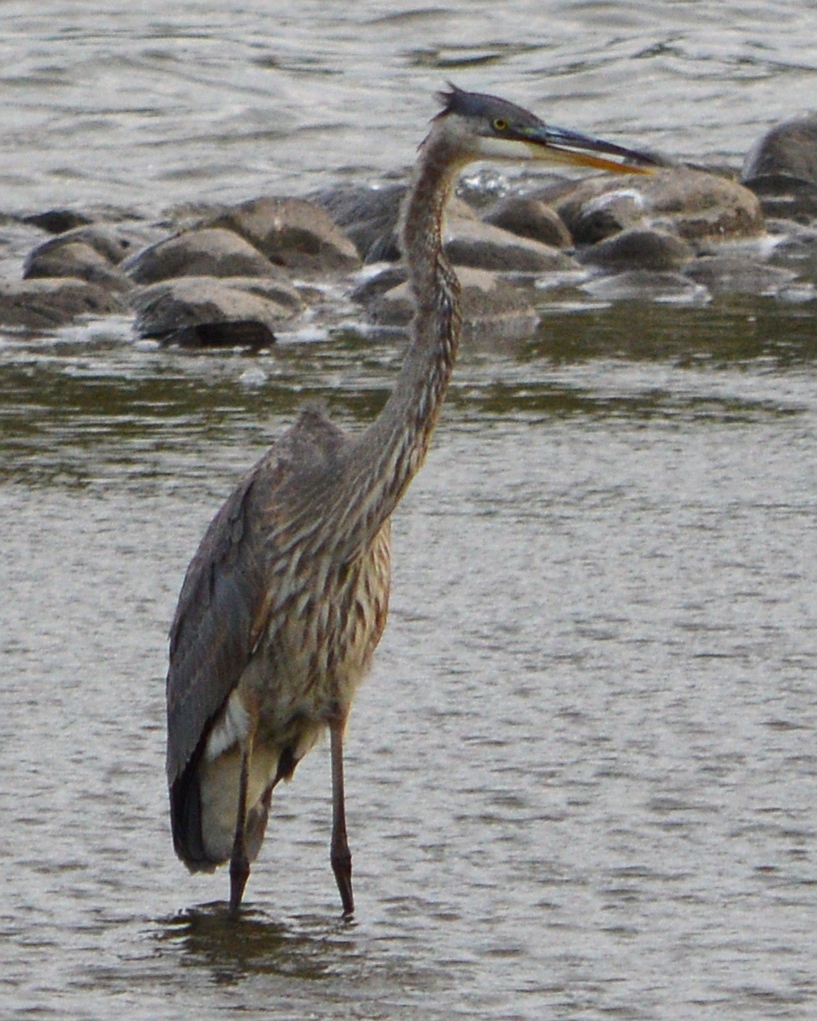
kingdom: Animalia
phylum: Chordata
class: Aves
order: Pelecaniformes
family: Ardeidae
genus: Ardea
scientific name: Ardea herodias
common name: Great blue heron
